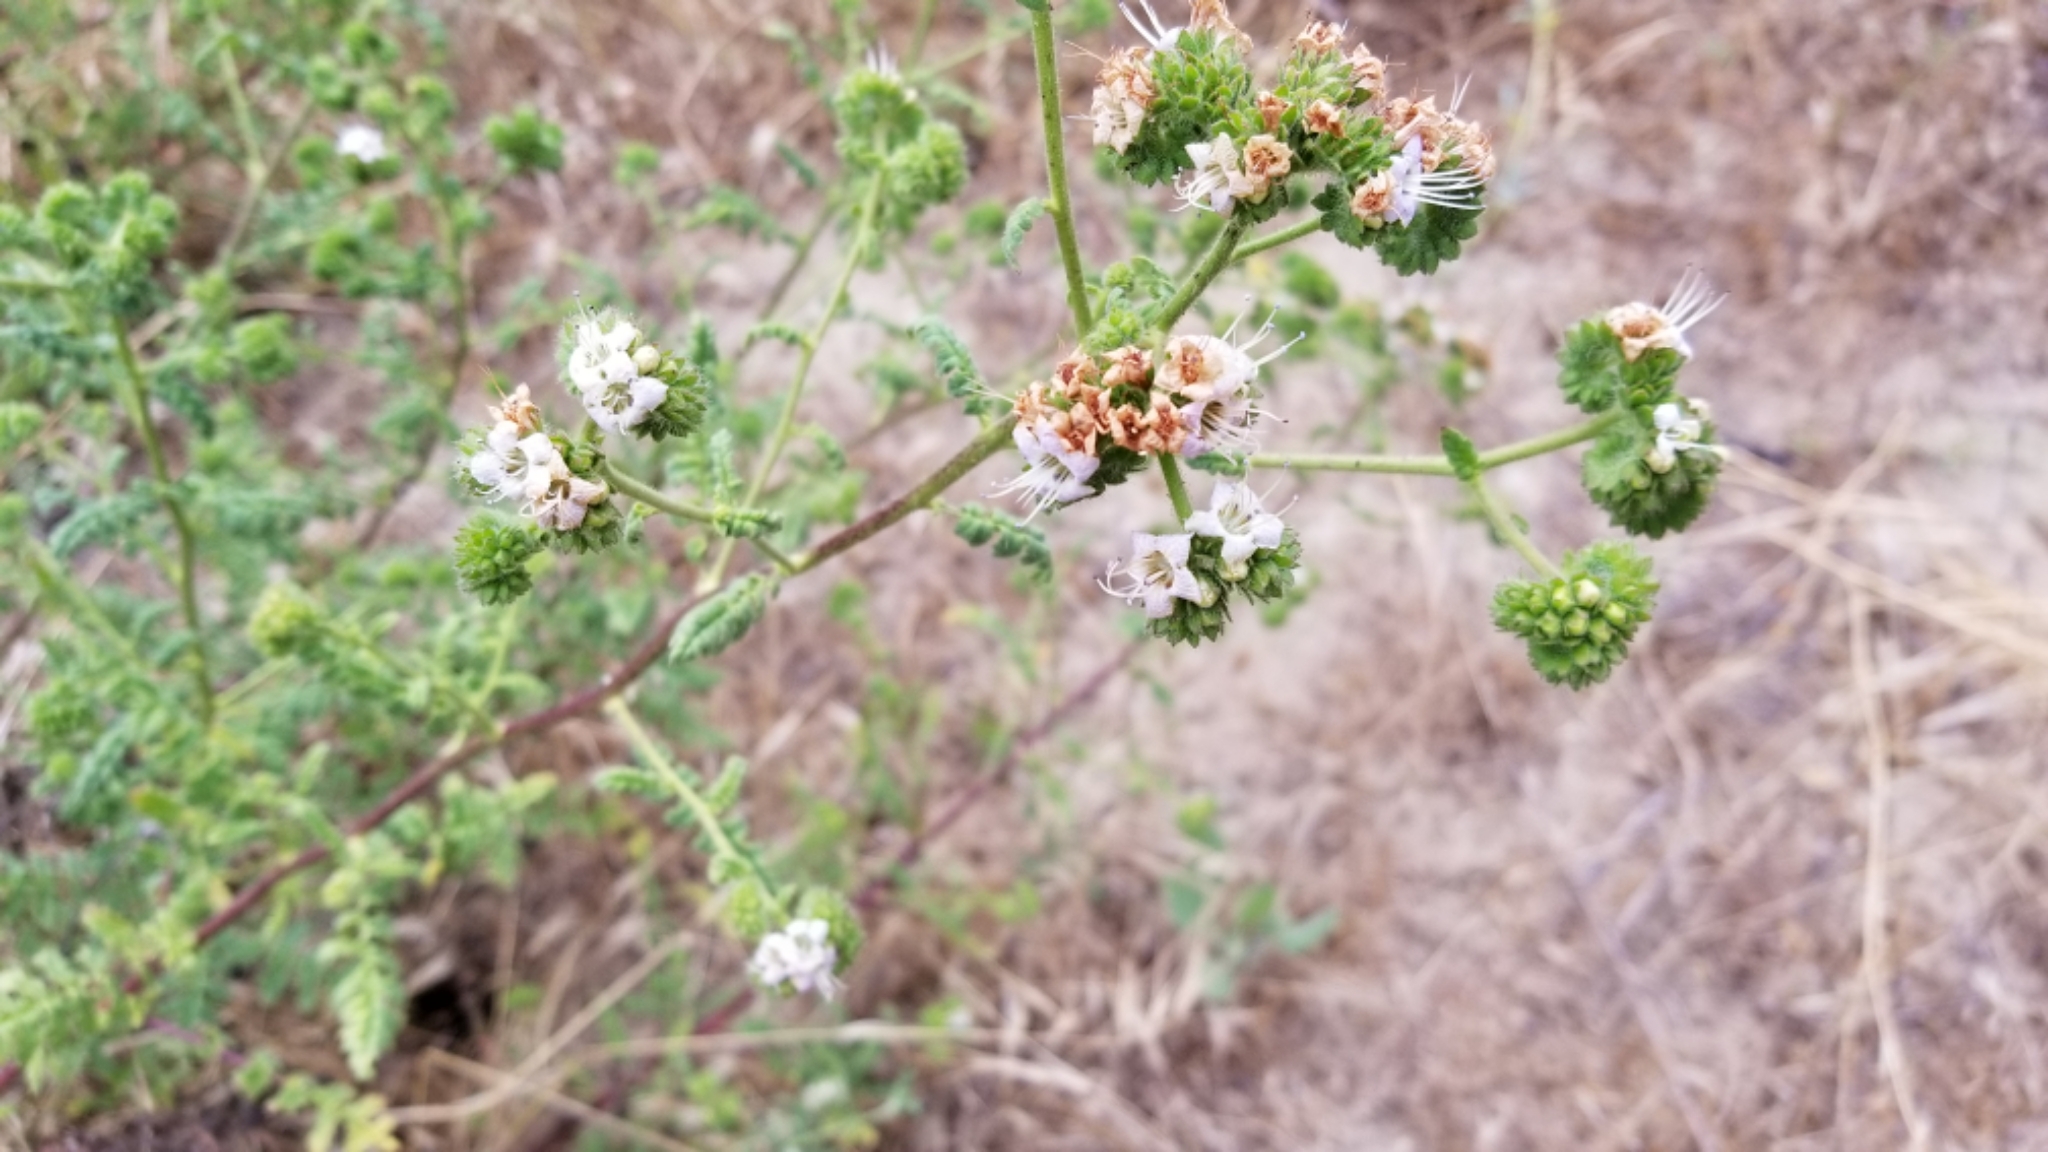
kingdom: Plantae
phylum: Tracheophyta
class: Magnoliopsida
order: Boraginales
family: Hydrophyllaceae
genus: Phacelia
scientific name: Phacelia ramosissima
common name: Branching phacelia
